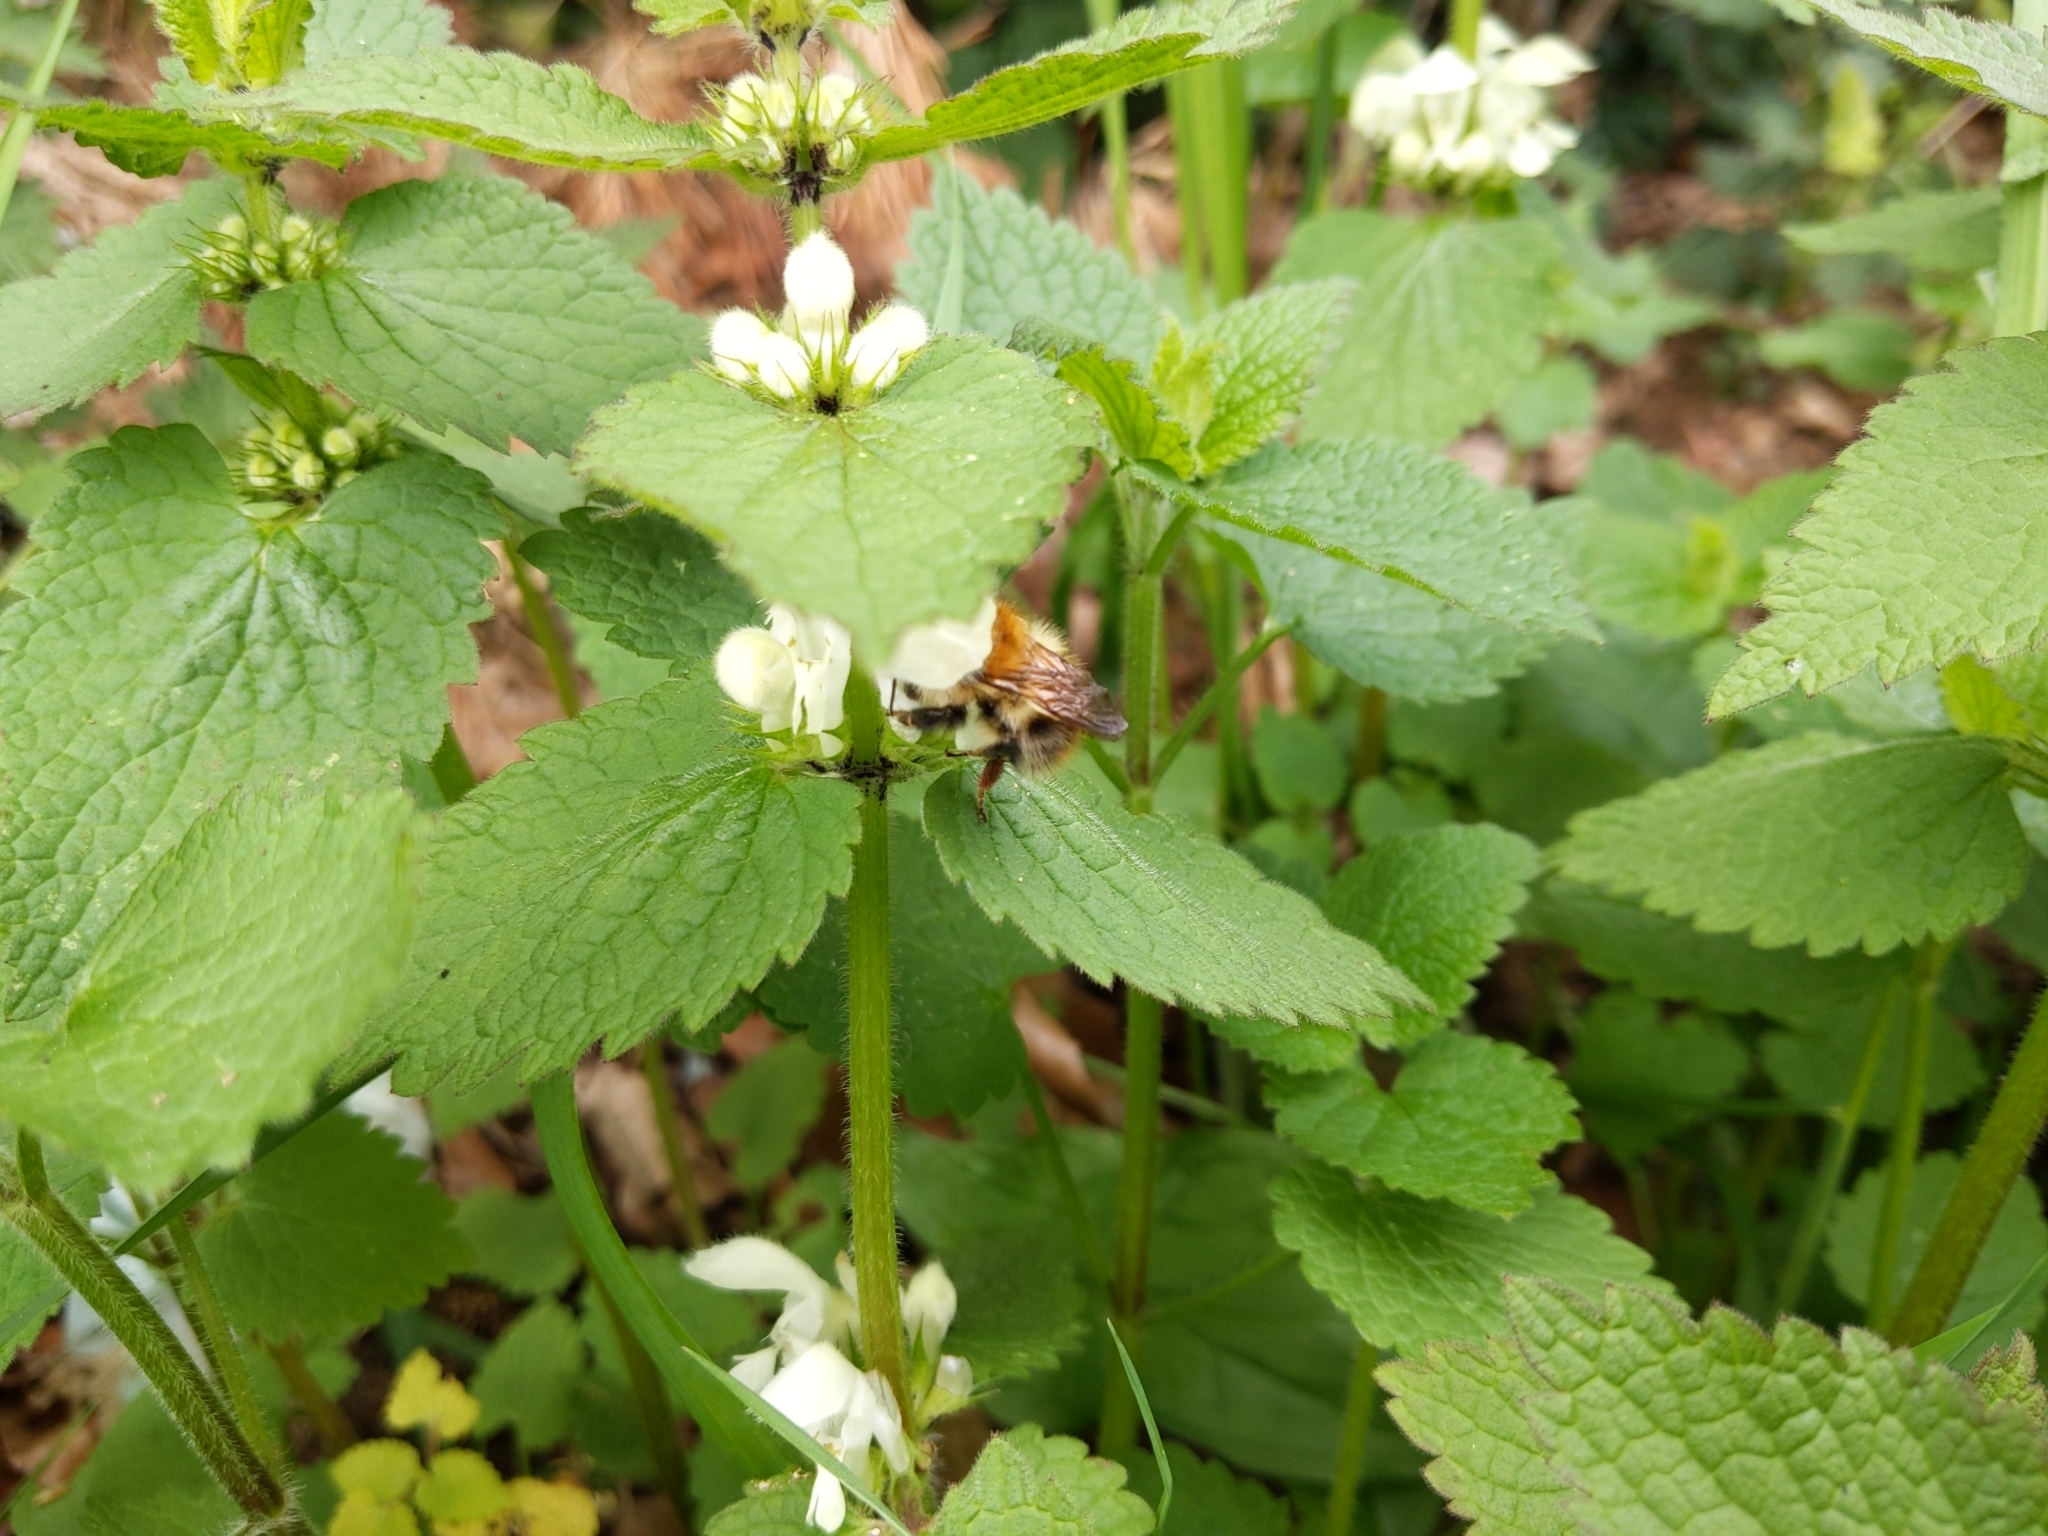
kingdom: Animalia
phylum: Arthropoda
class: Insecta
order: Hymenoptera
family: Apidae
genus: Bombus
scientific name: Bombus pascuorum
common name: Common carder bee
